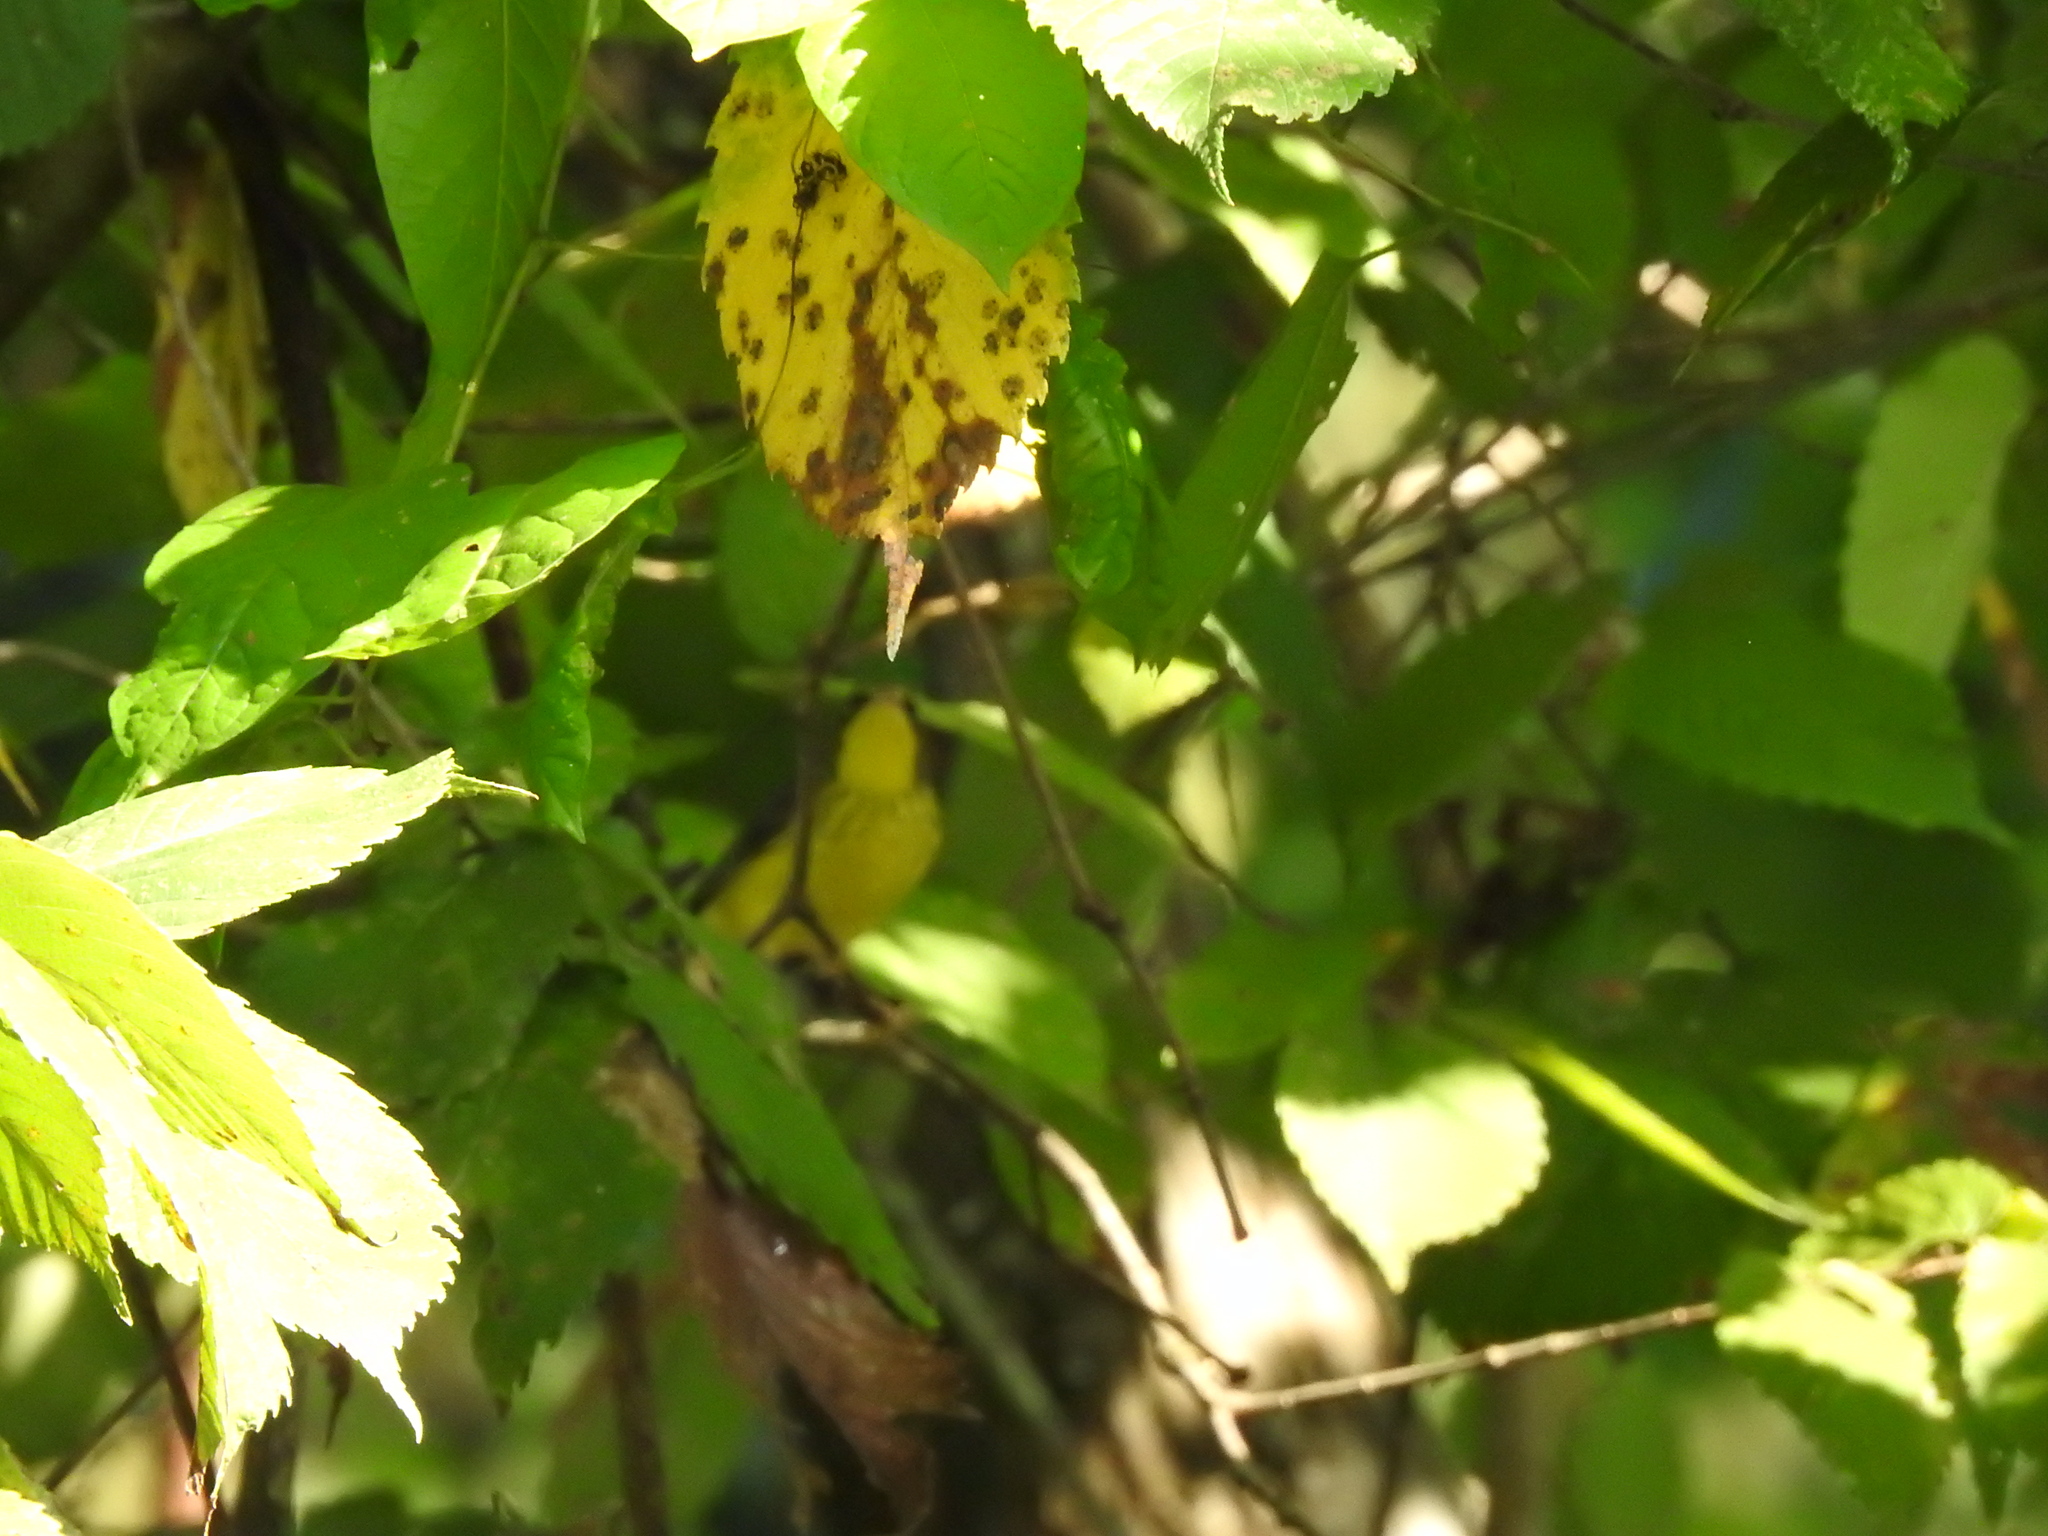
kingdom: Animalia
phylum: Chordata
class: Aves
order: Passeriformes
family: Parulidae
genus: Cardellina
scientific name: Cardellina canadensis
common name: Canada warbler
